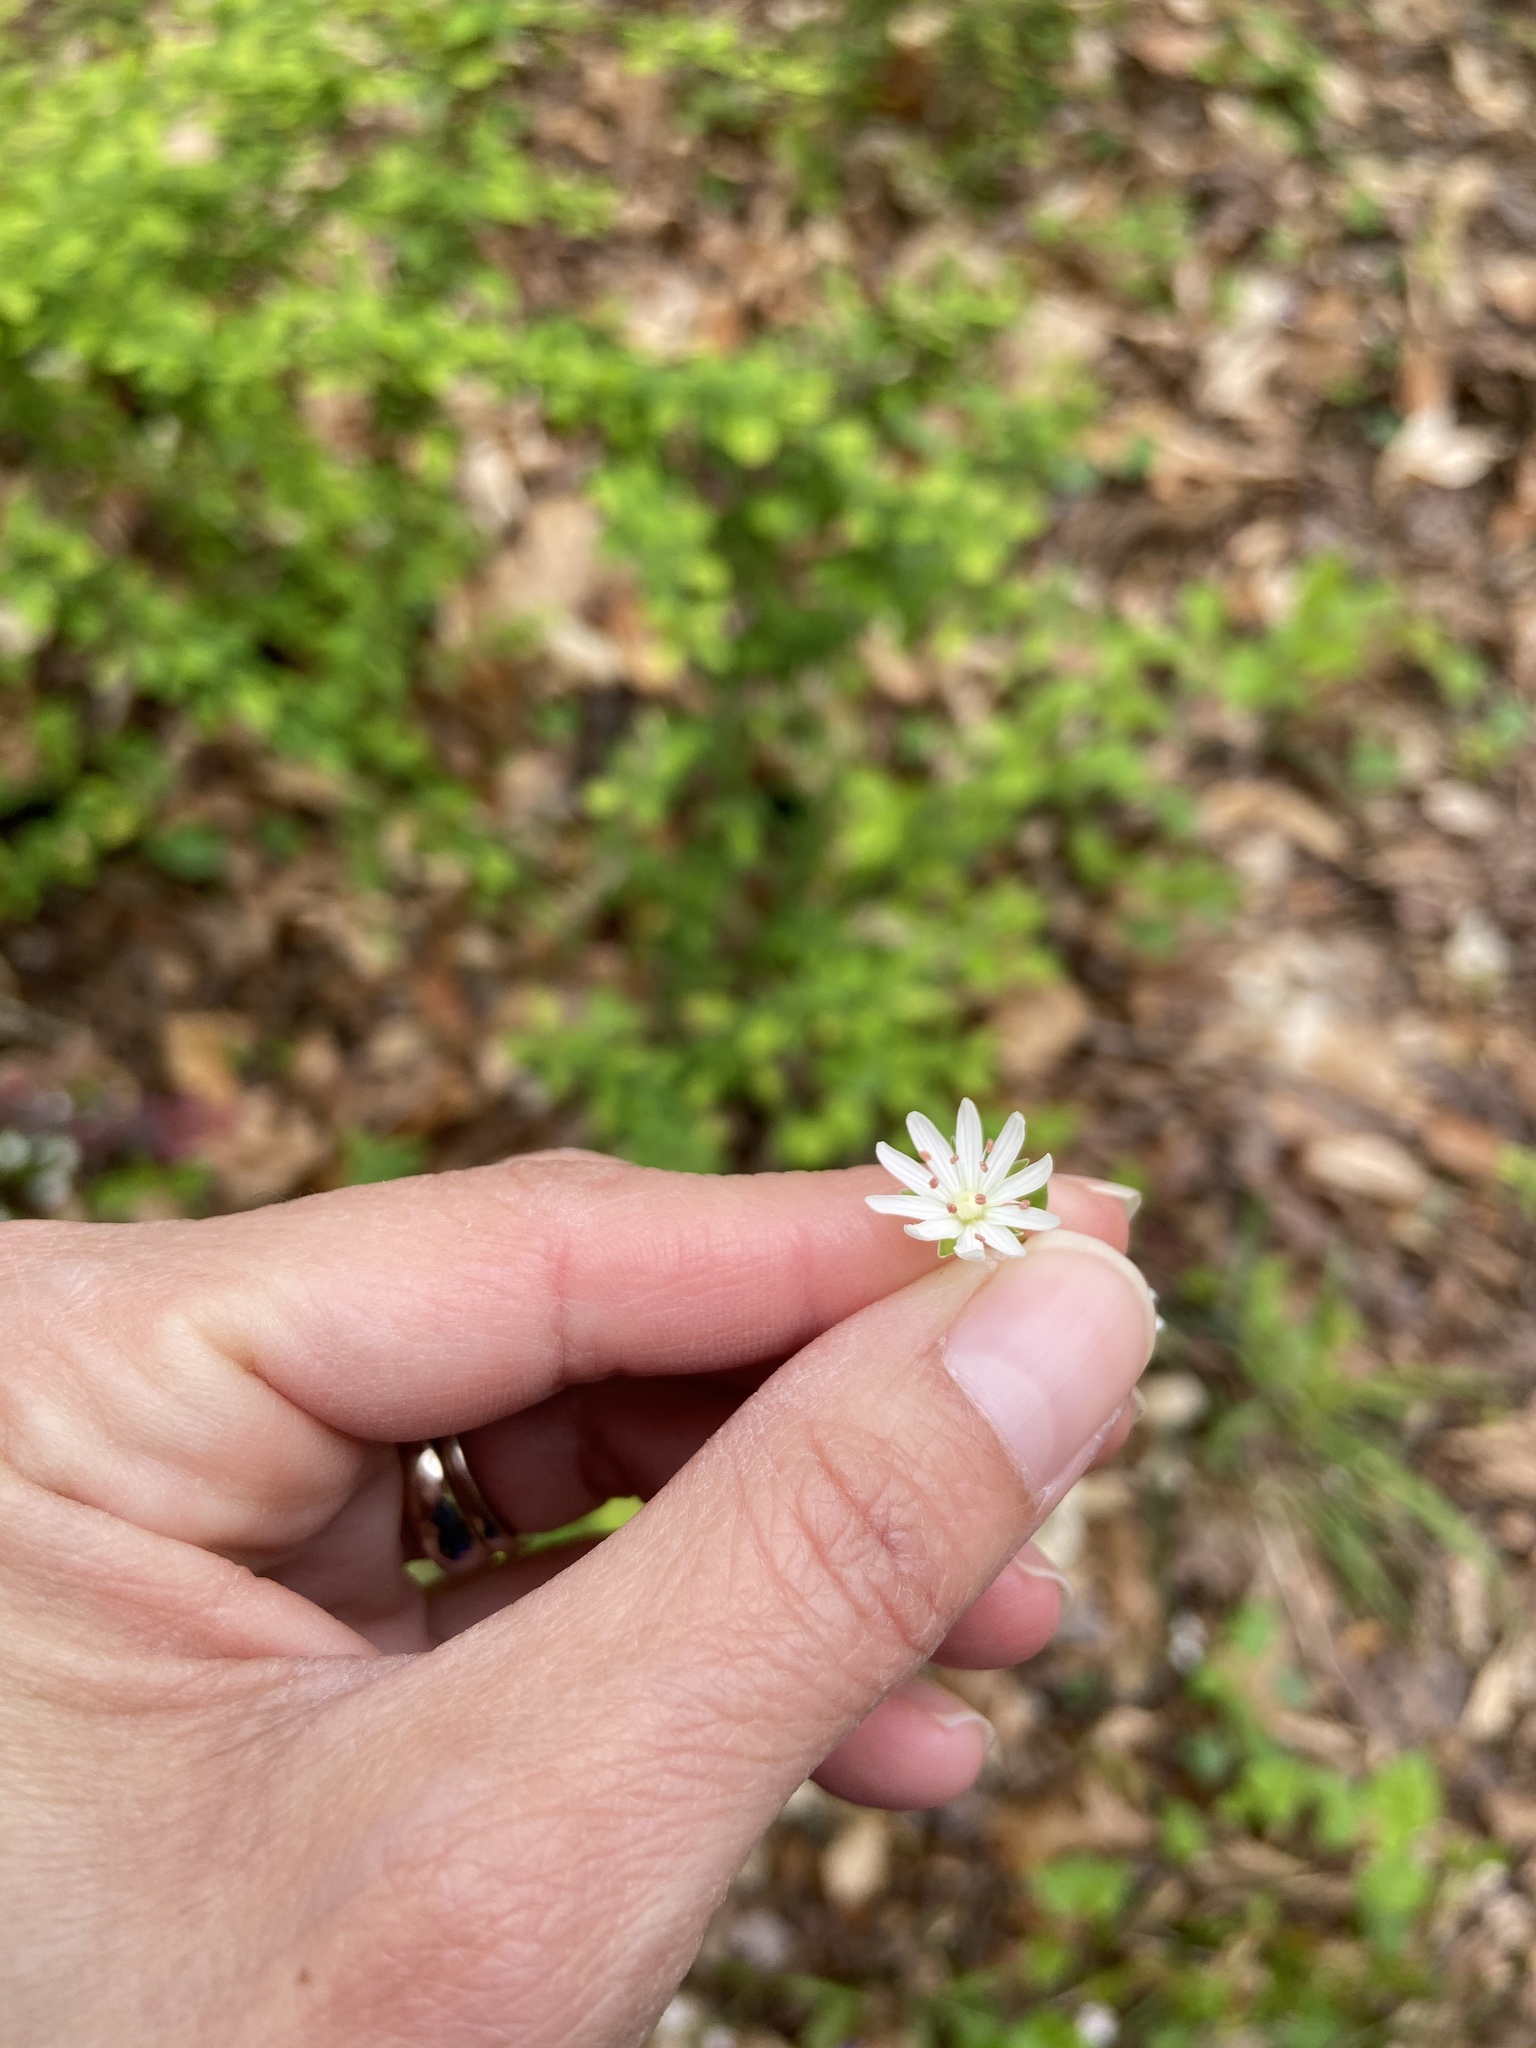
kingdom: Plantae
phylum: Tracheophyta
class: Magnoliopsida
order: Caryophyllales
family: Caryophyllaceae
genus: Stellaria
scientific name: Stellaria pubera
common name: Star chickweed
